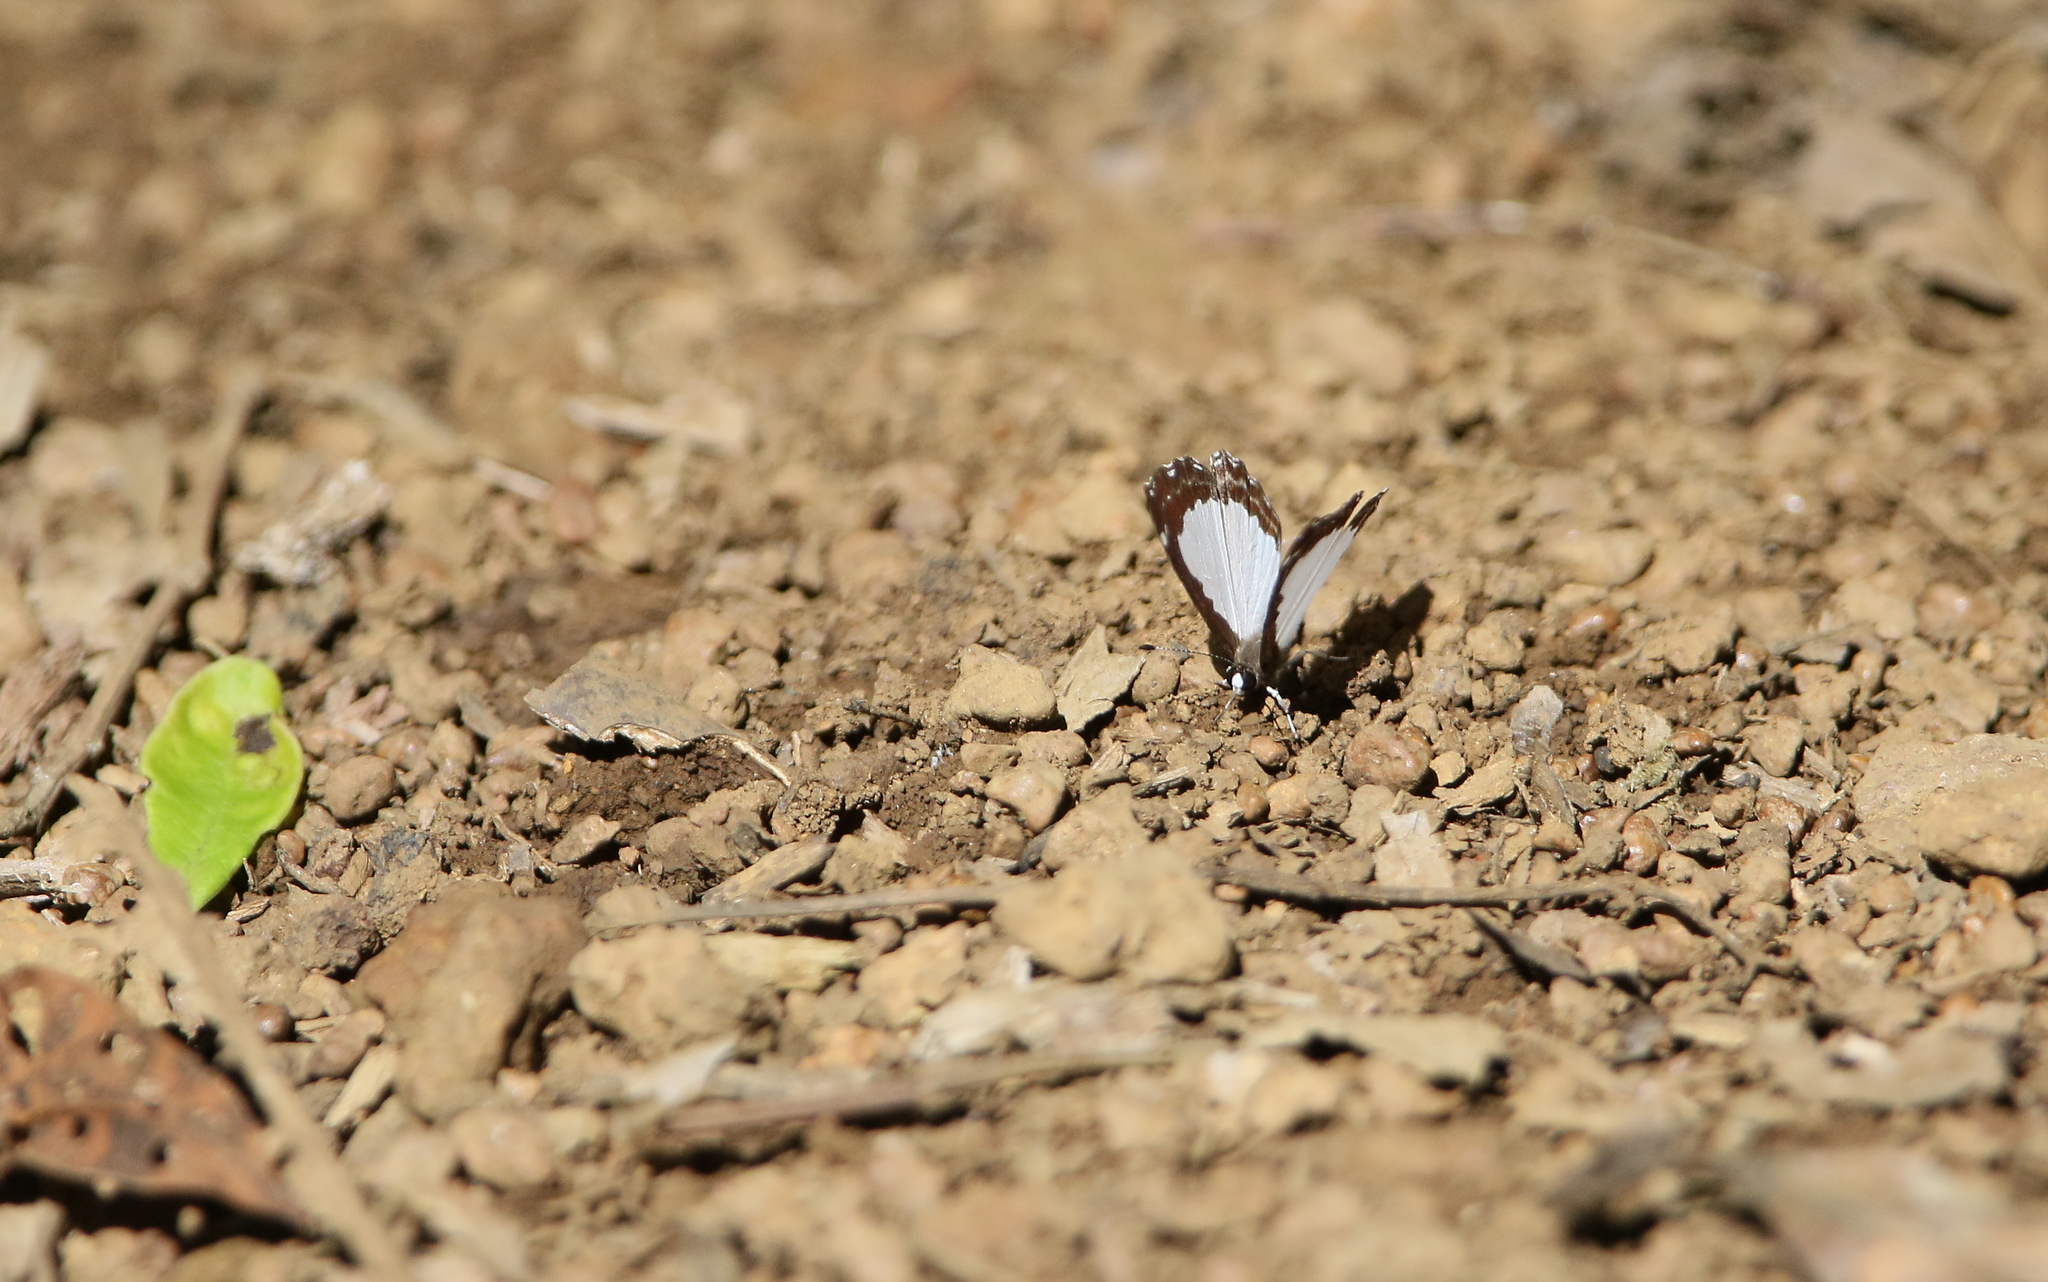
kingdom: Animalia
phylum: Arthropoda
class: Insecta
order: Lepidoptera
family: Riodinidae
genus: Stiboges
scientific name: Stiboges nymphidia
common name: Columbine
